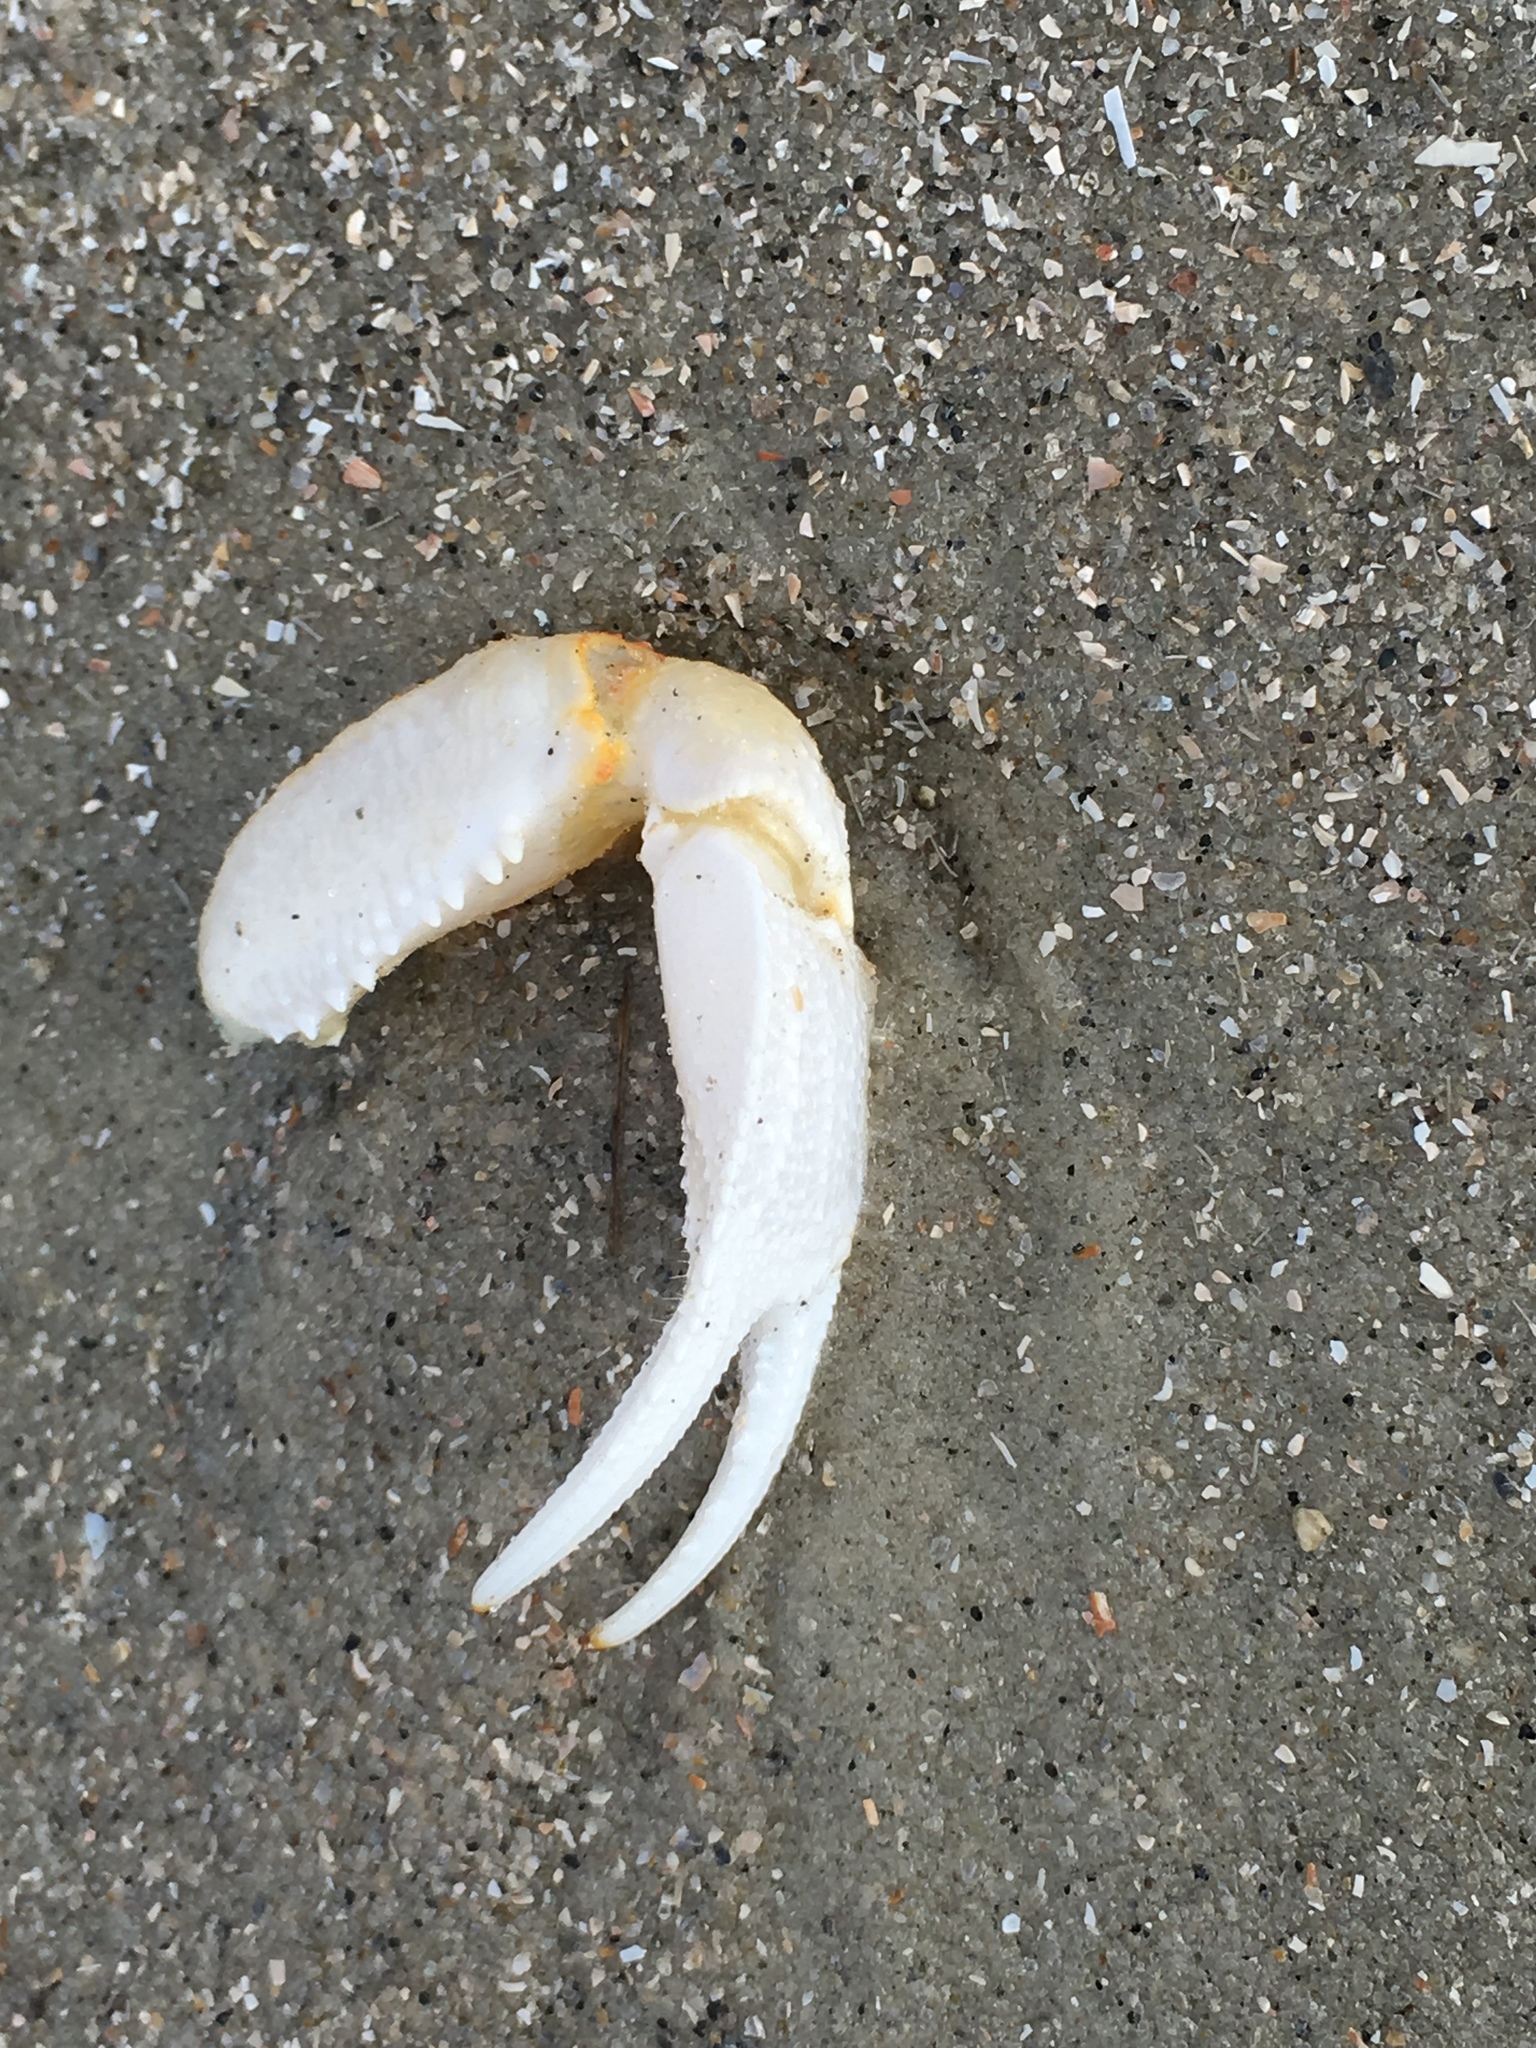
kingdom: Animalia
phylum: Arthropoda
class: Malacostraca
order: Decapoda
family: Ocypodidae
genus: Ocypode
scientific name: Ocypode quadrata
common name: Ghost crab
